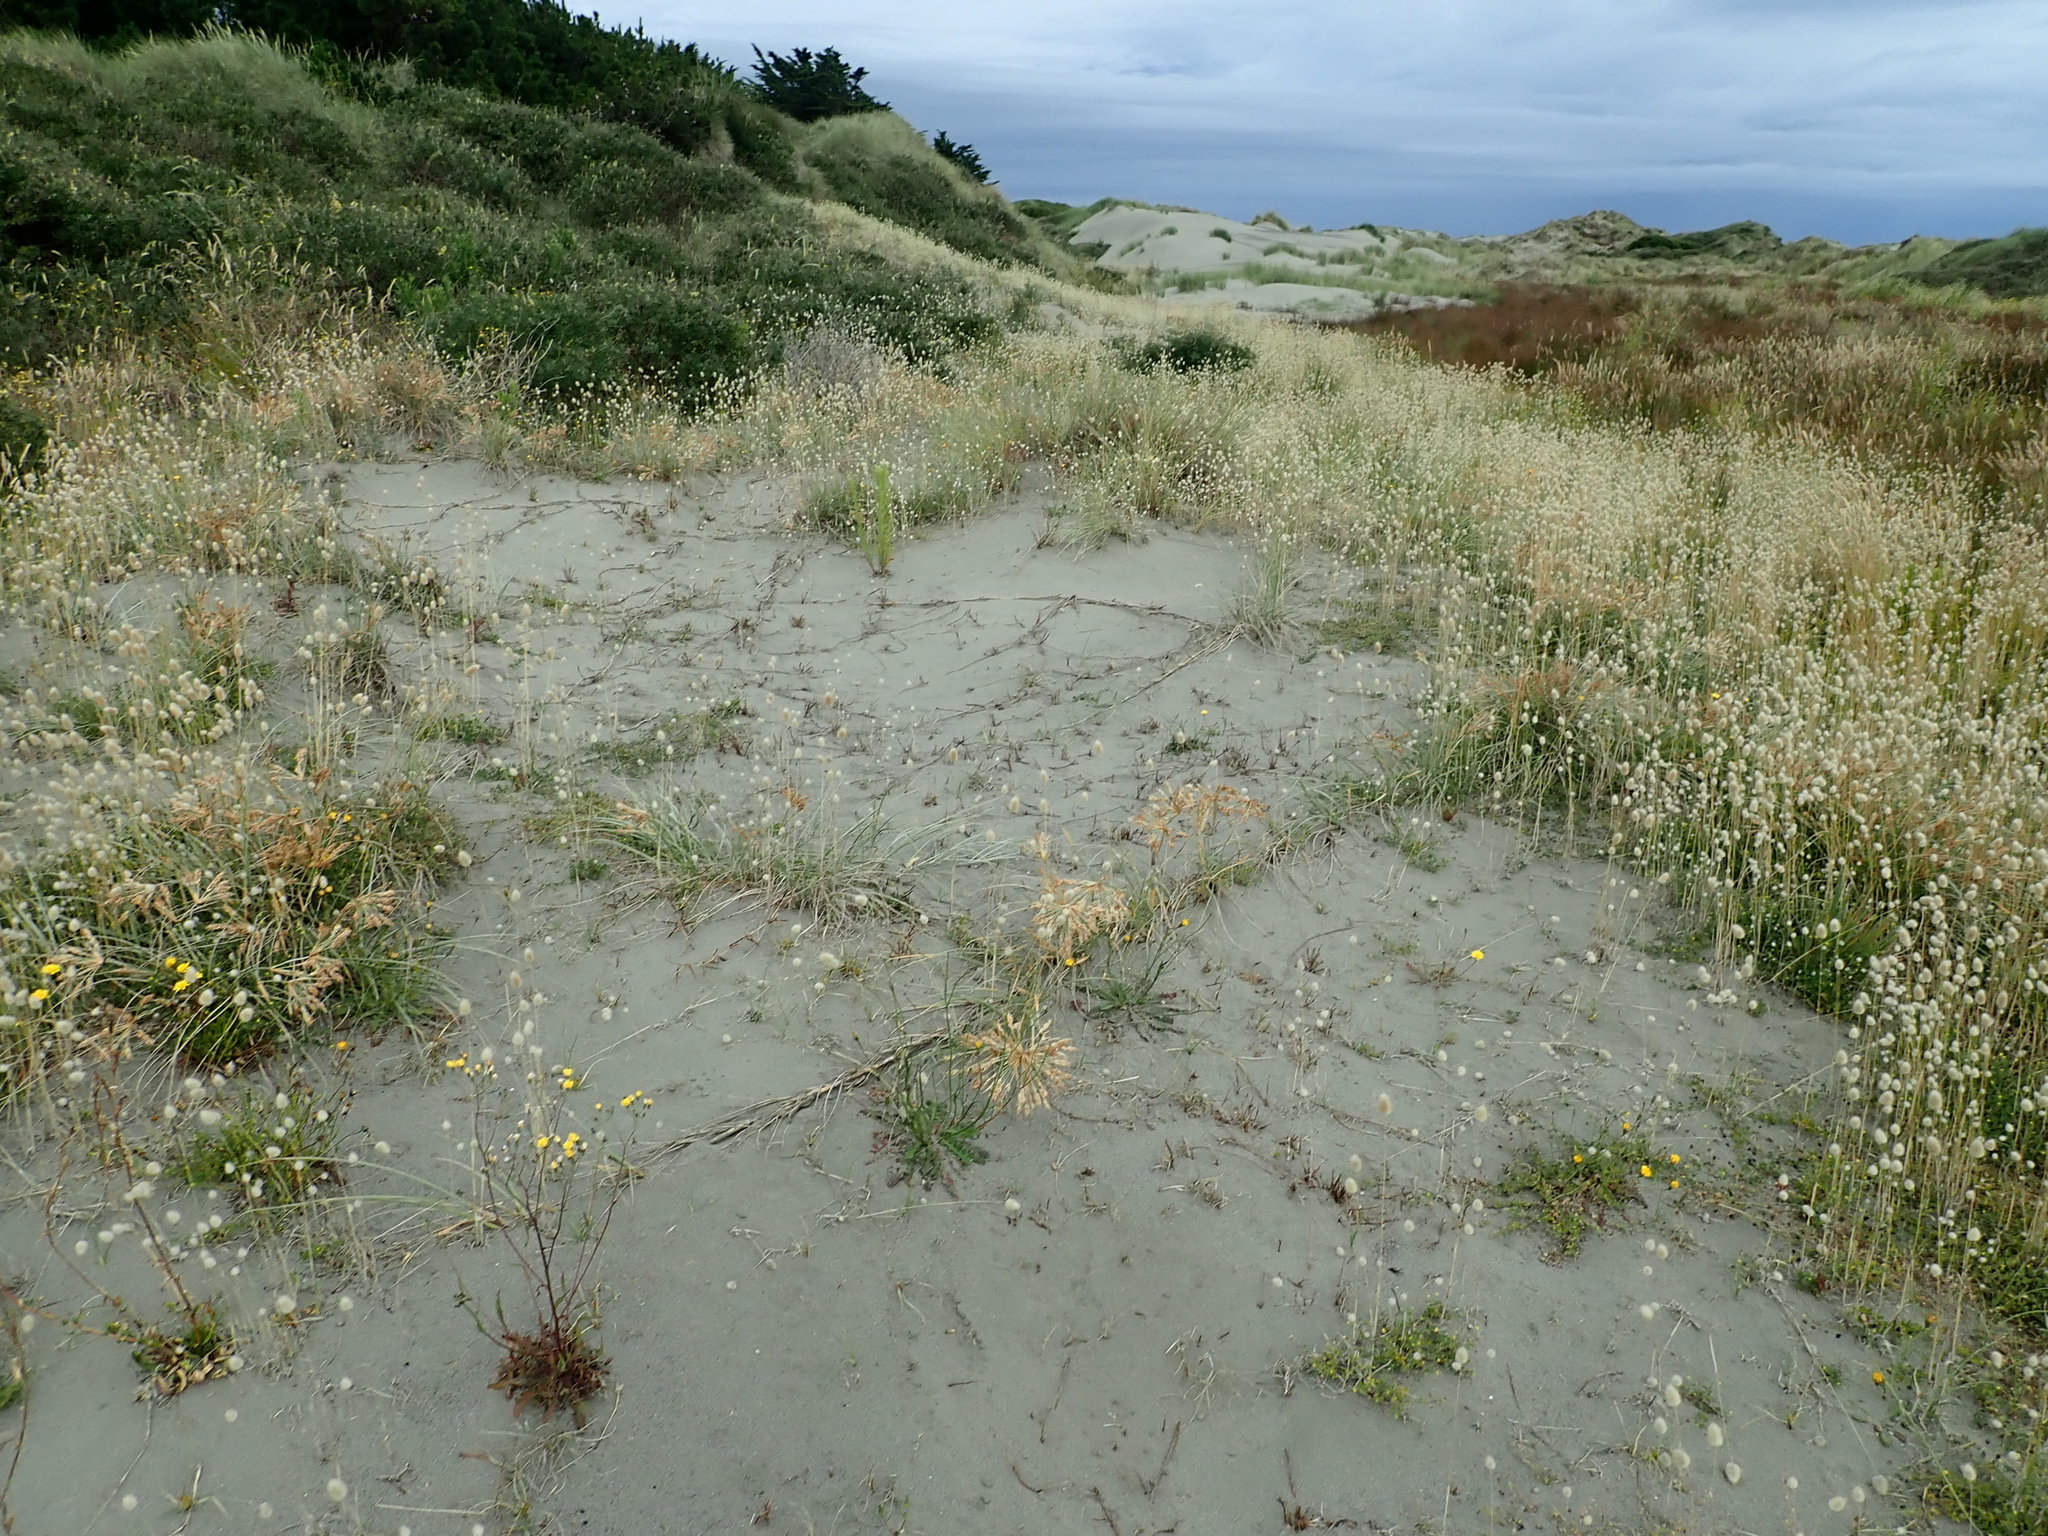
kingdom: Animalia
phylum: Arthropoda
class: Insecta
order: Hymenoptera
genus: Trichocurgus
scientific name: Trichocurgus
